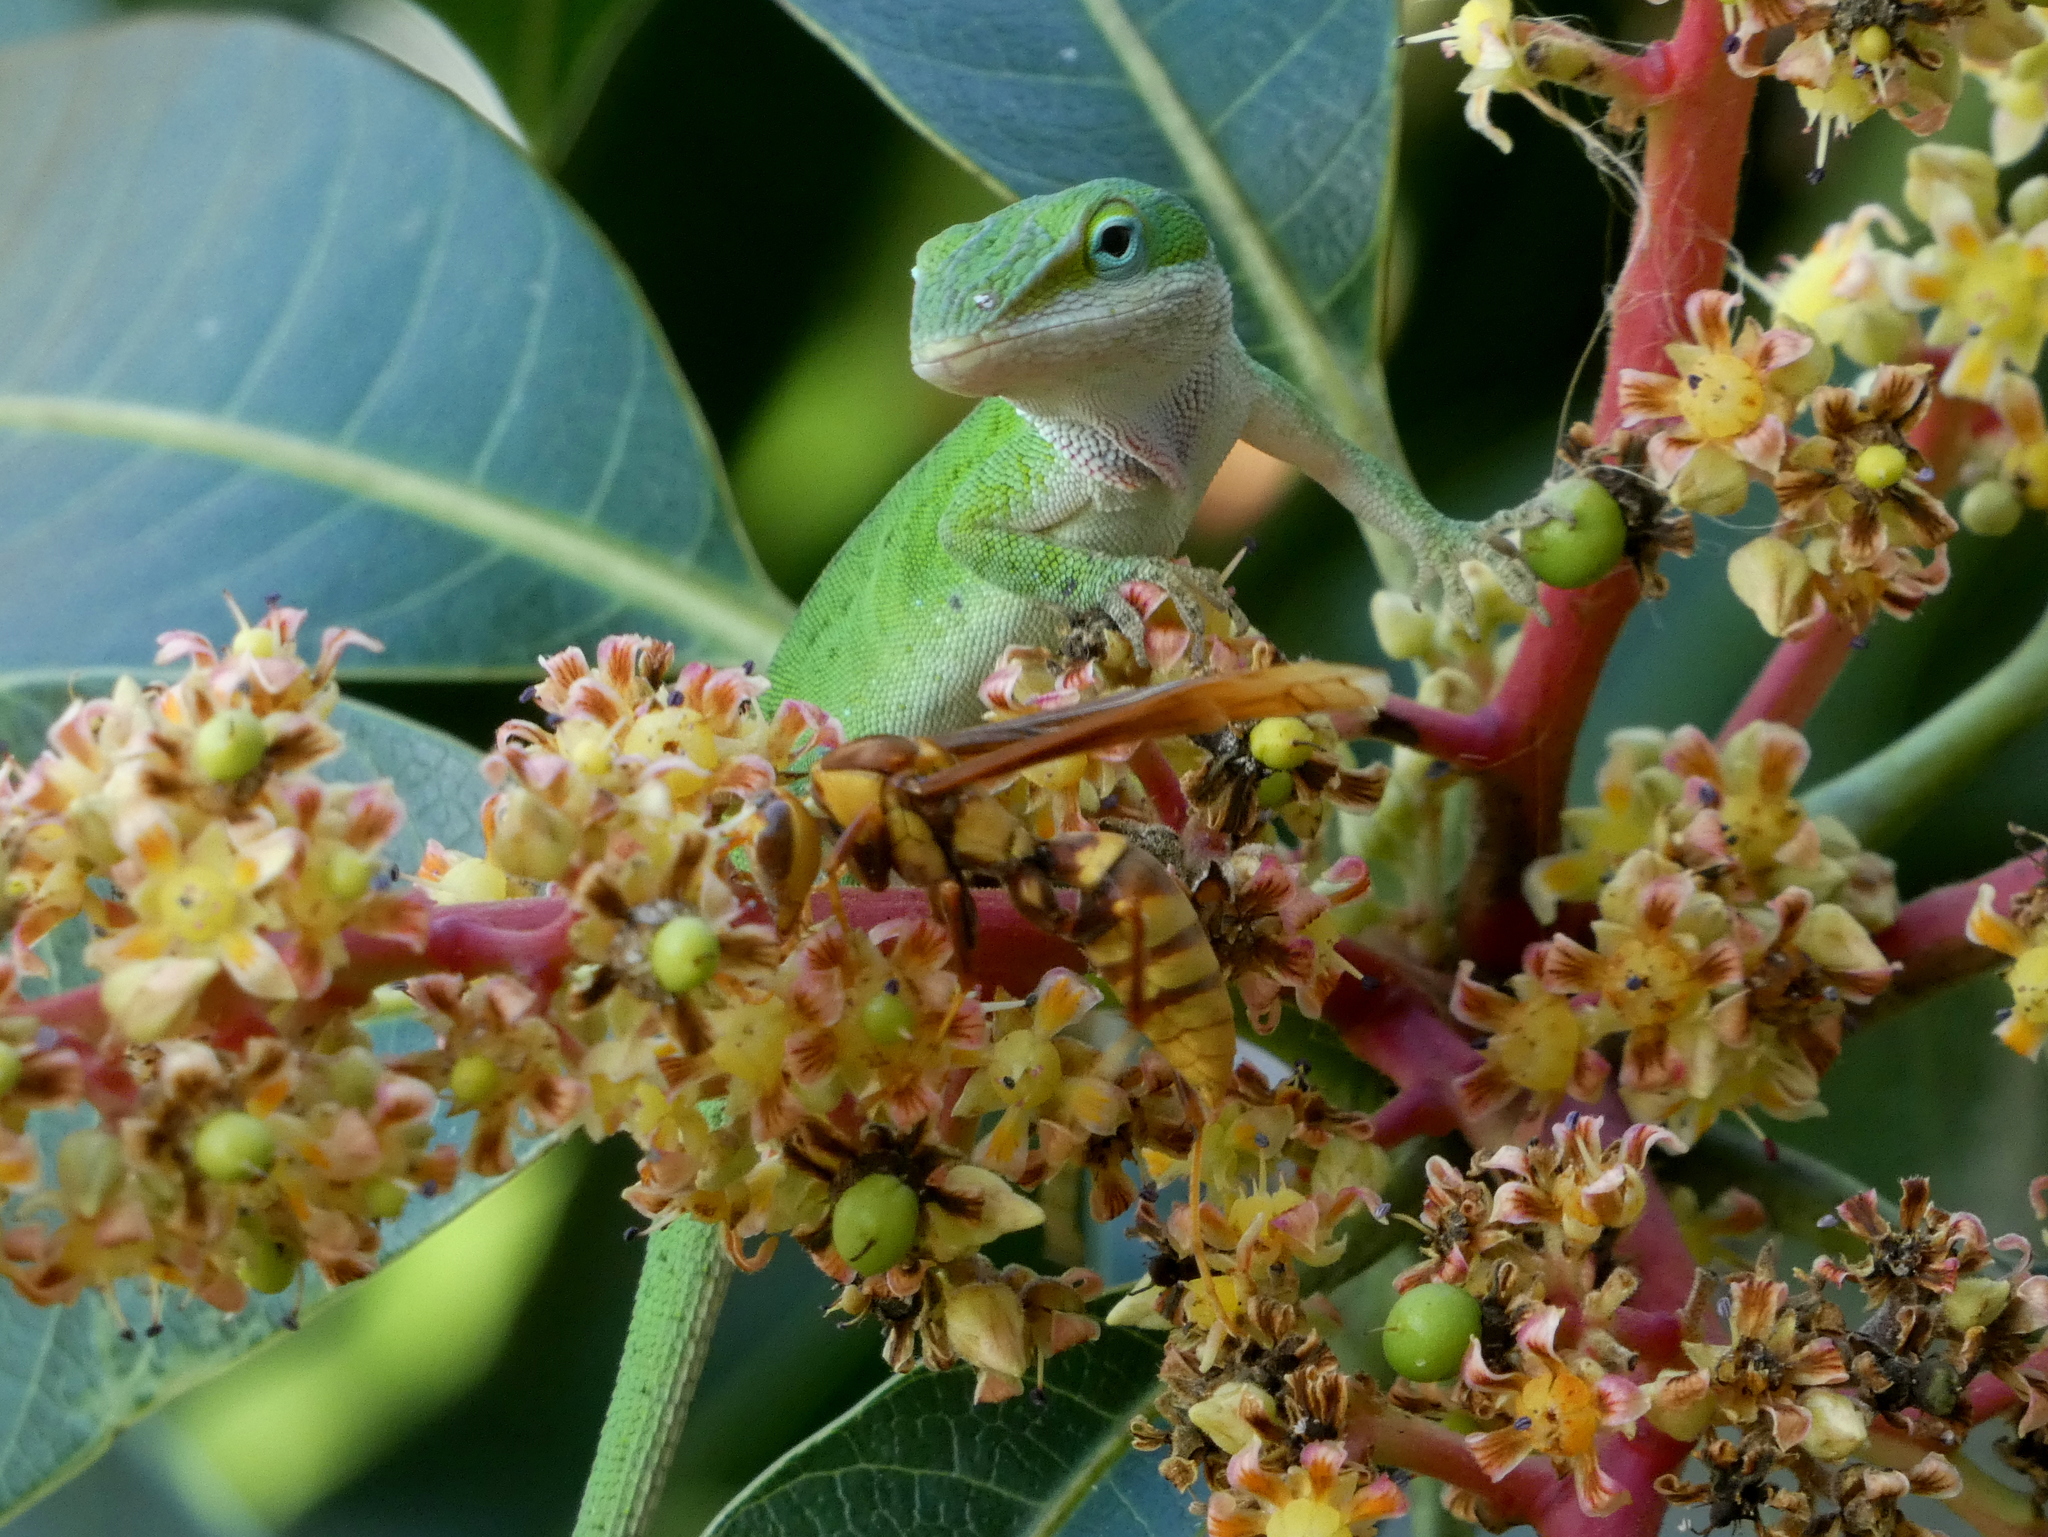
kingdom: Animalia
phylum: Chordata
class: Squamata
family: Dactyloidae
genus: Anolis
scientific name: Anolis carolinensis
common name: Green anole
